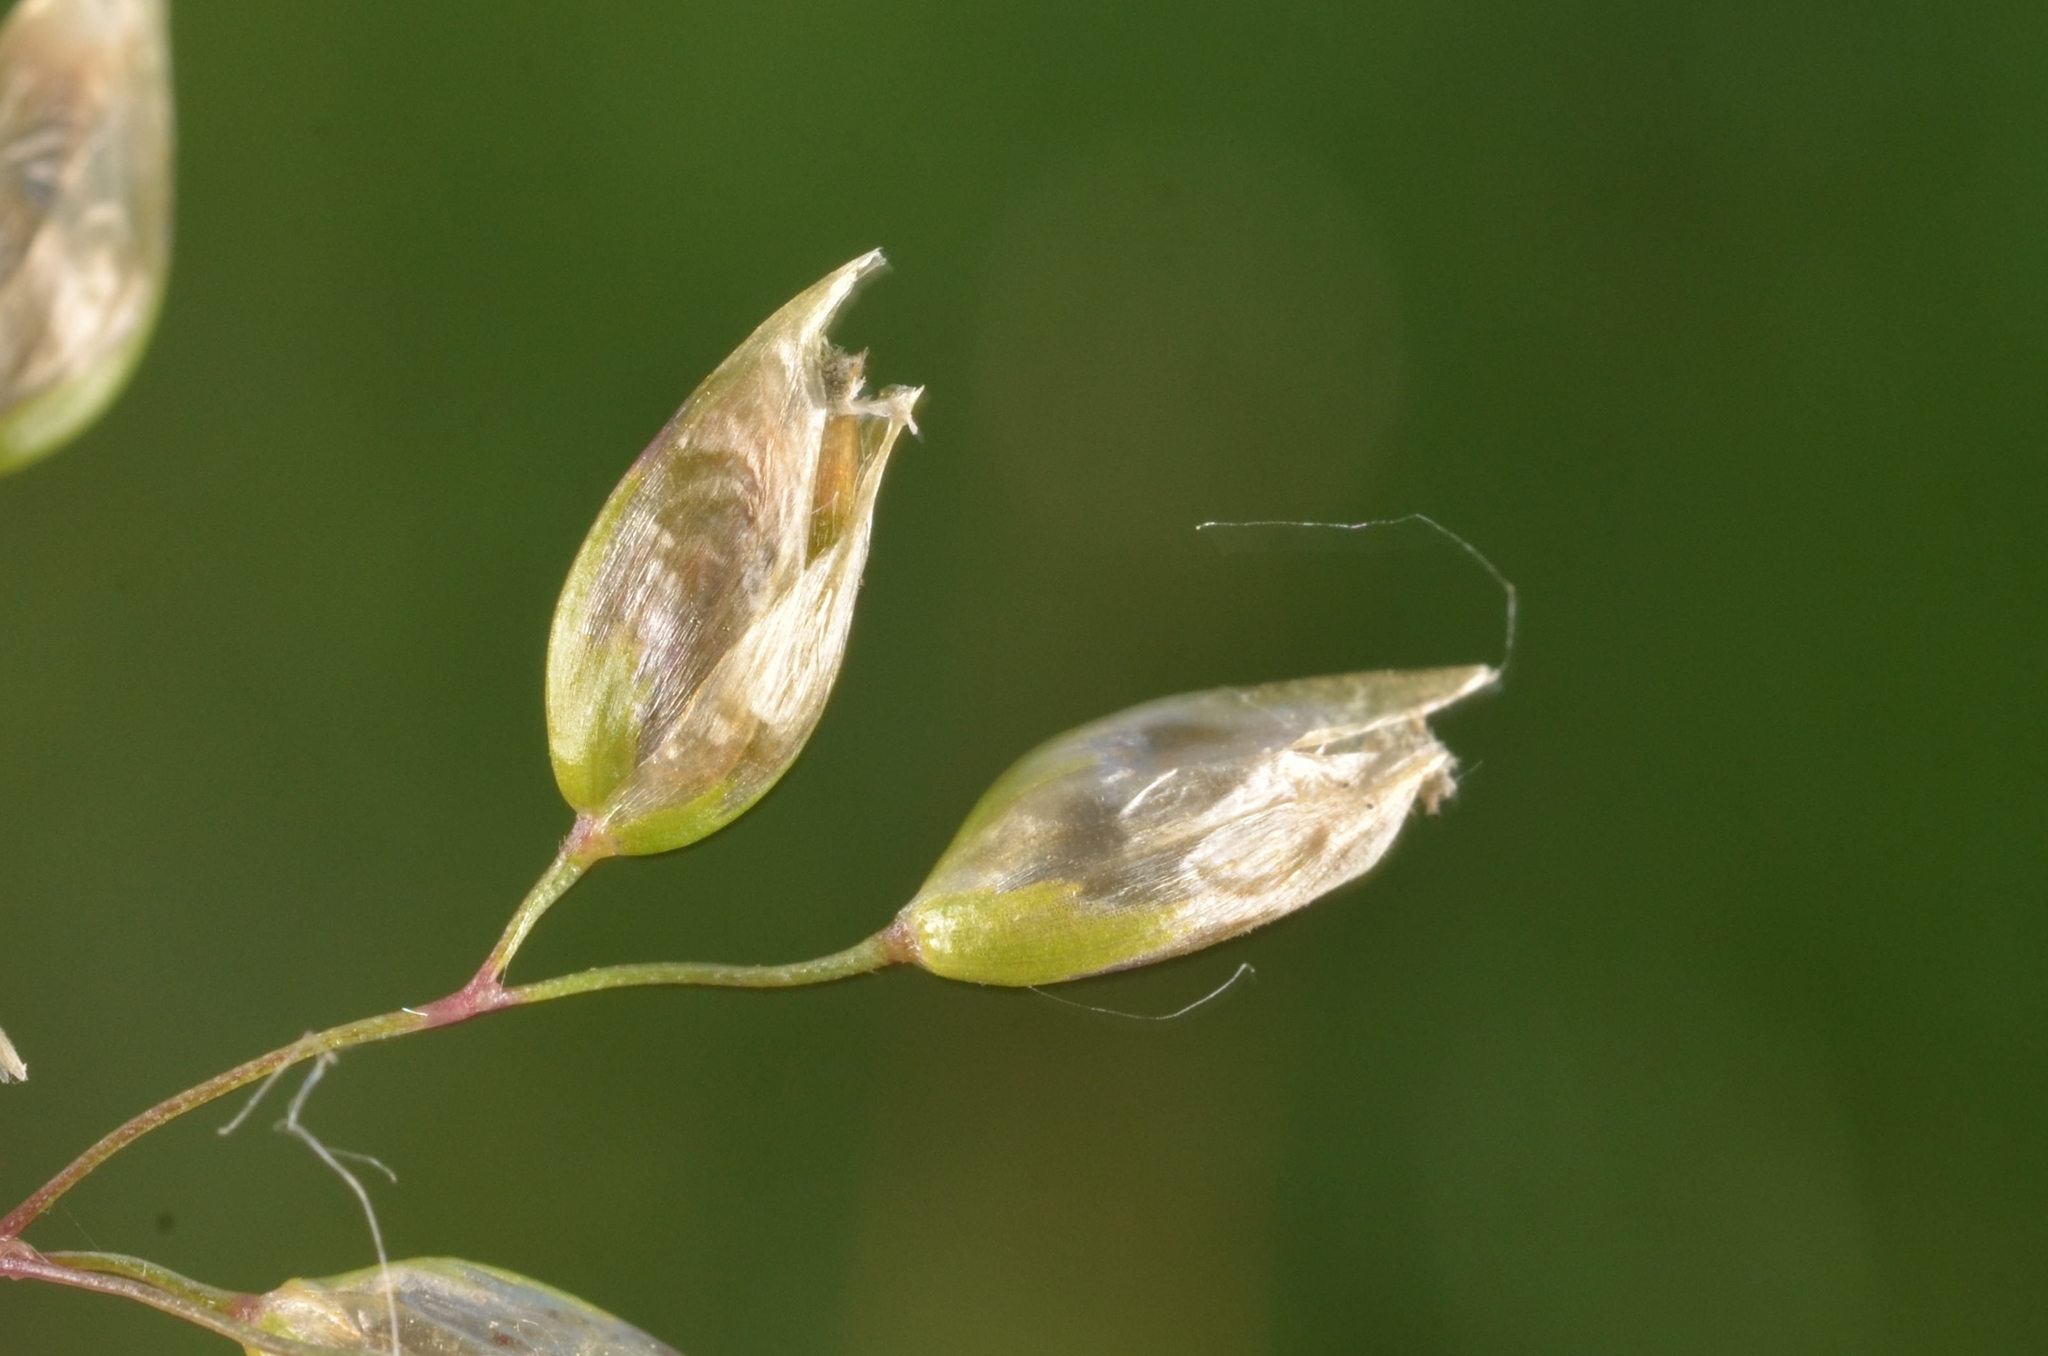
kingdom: Plantae
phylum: Tracheophyta
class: Liliopsida
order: Poales
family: Poaceae
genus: Anthoxanthum
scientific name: Anthoxanthum nitens
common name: Holy grass
